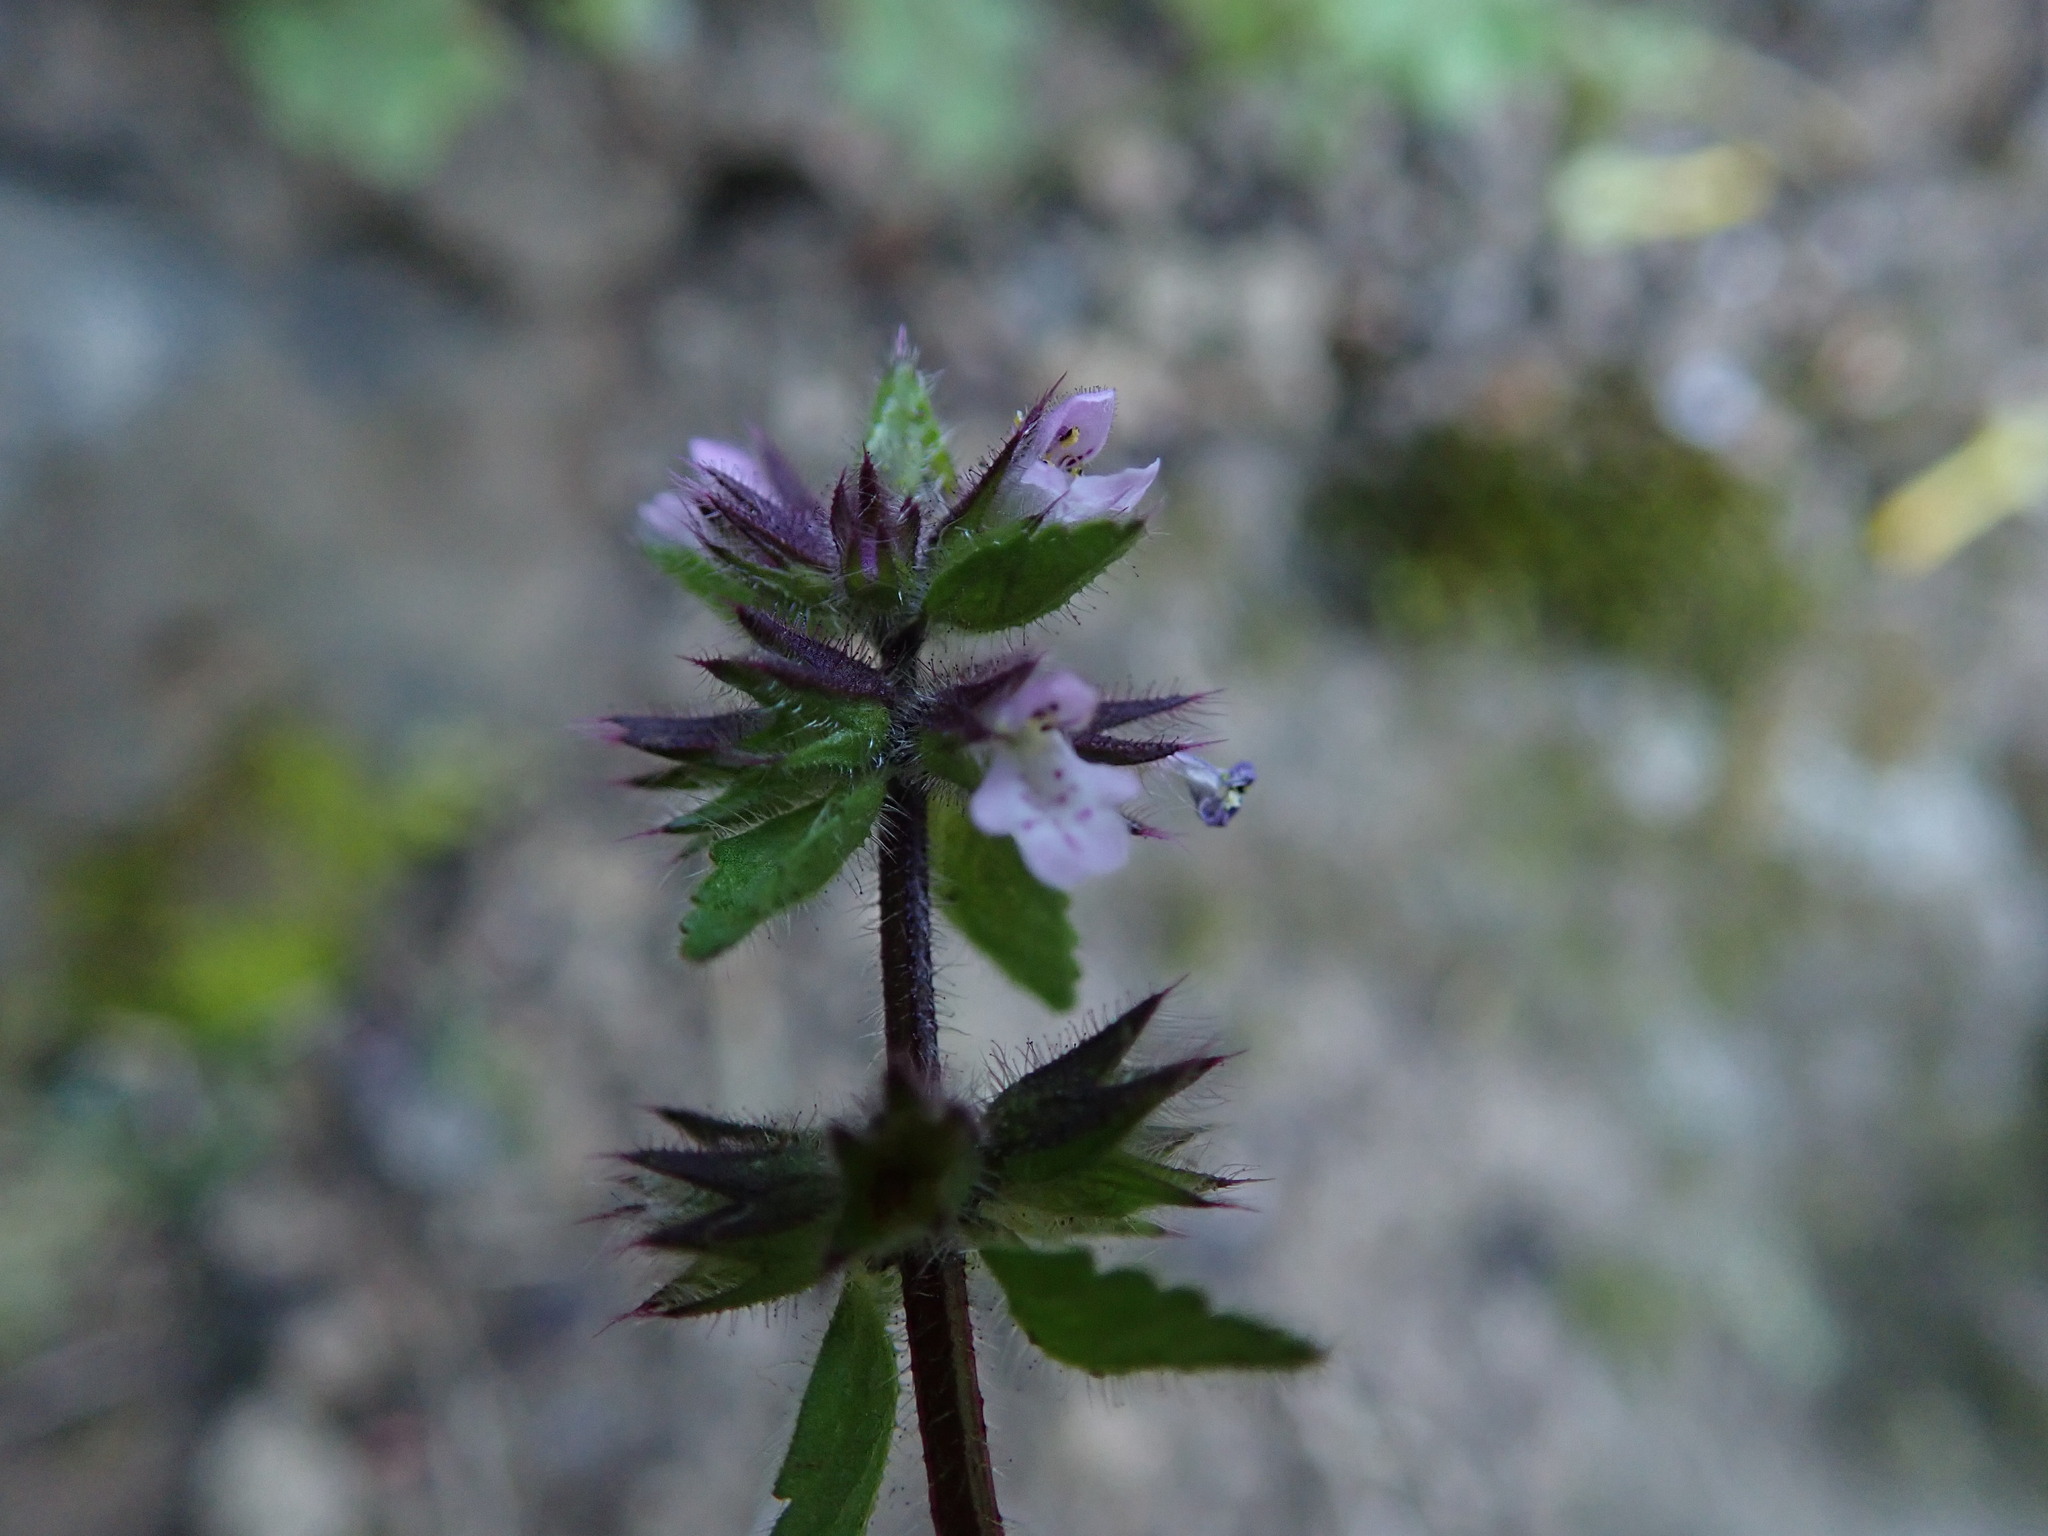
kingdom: Plantae
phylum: Tracheophyta
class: Magnoliopsida
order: Lamiales
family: Lamiaceae
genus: Stachys
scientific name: Stachys arvensis
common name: Field woundwort
